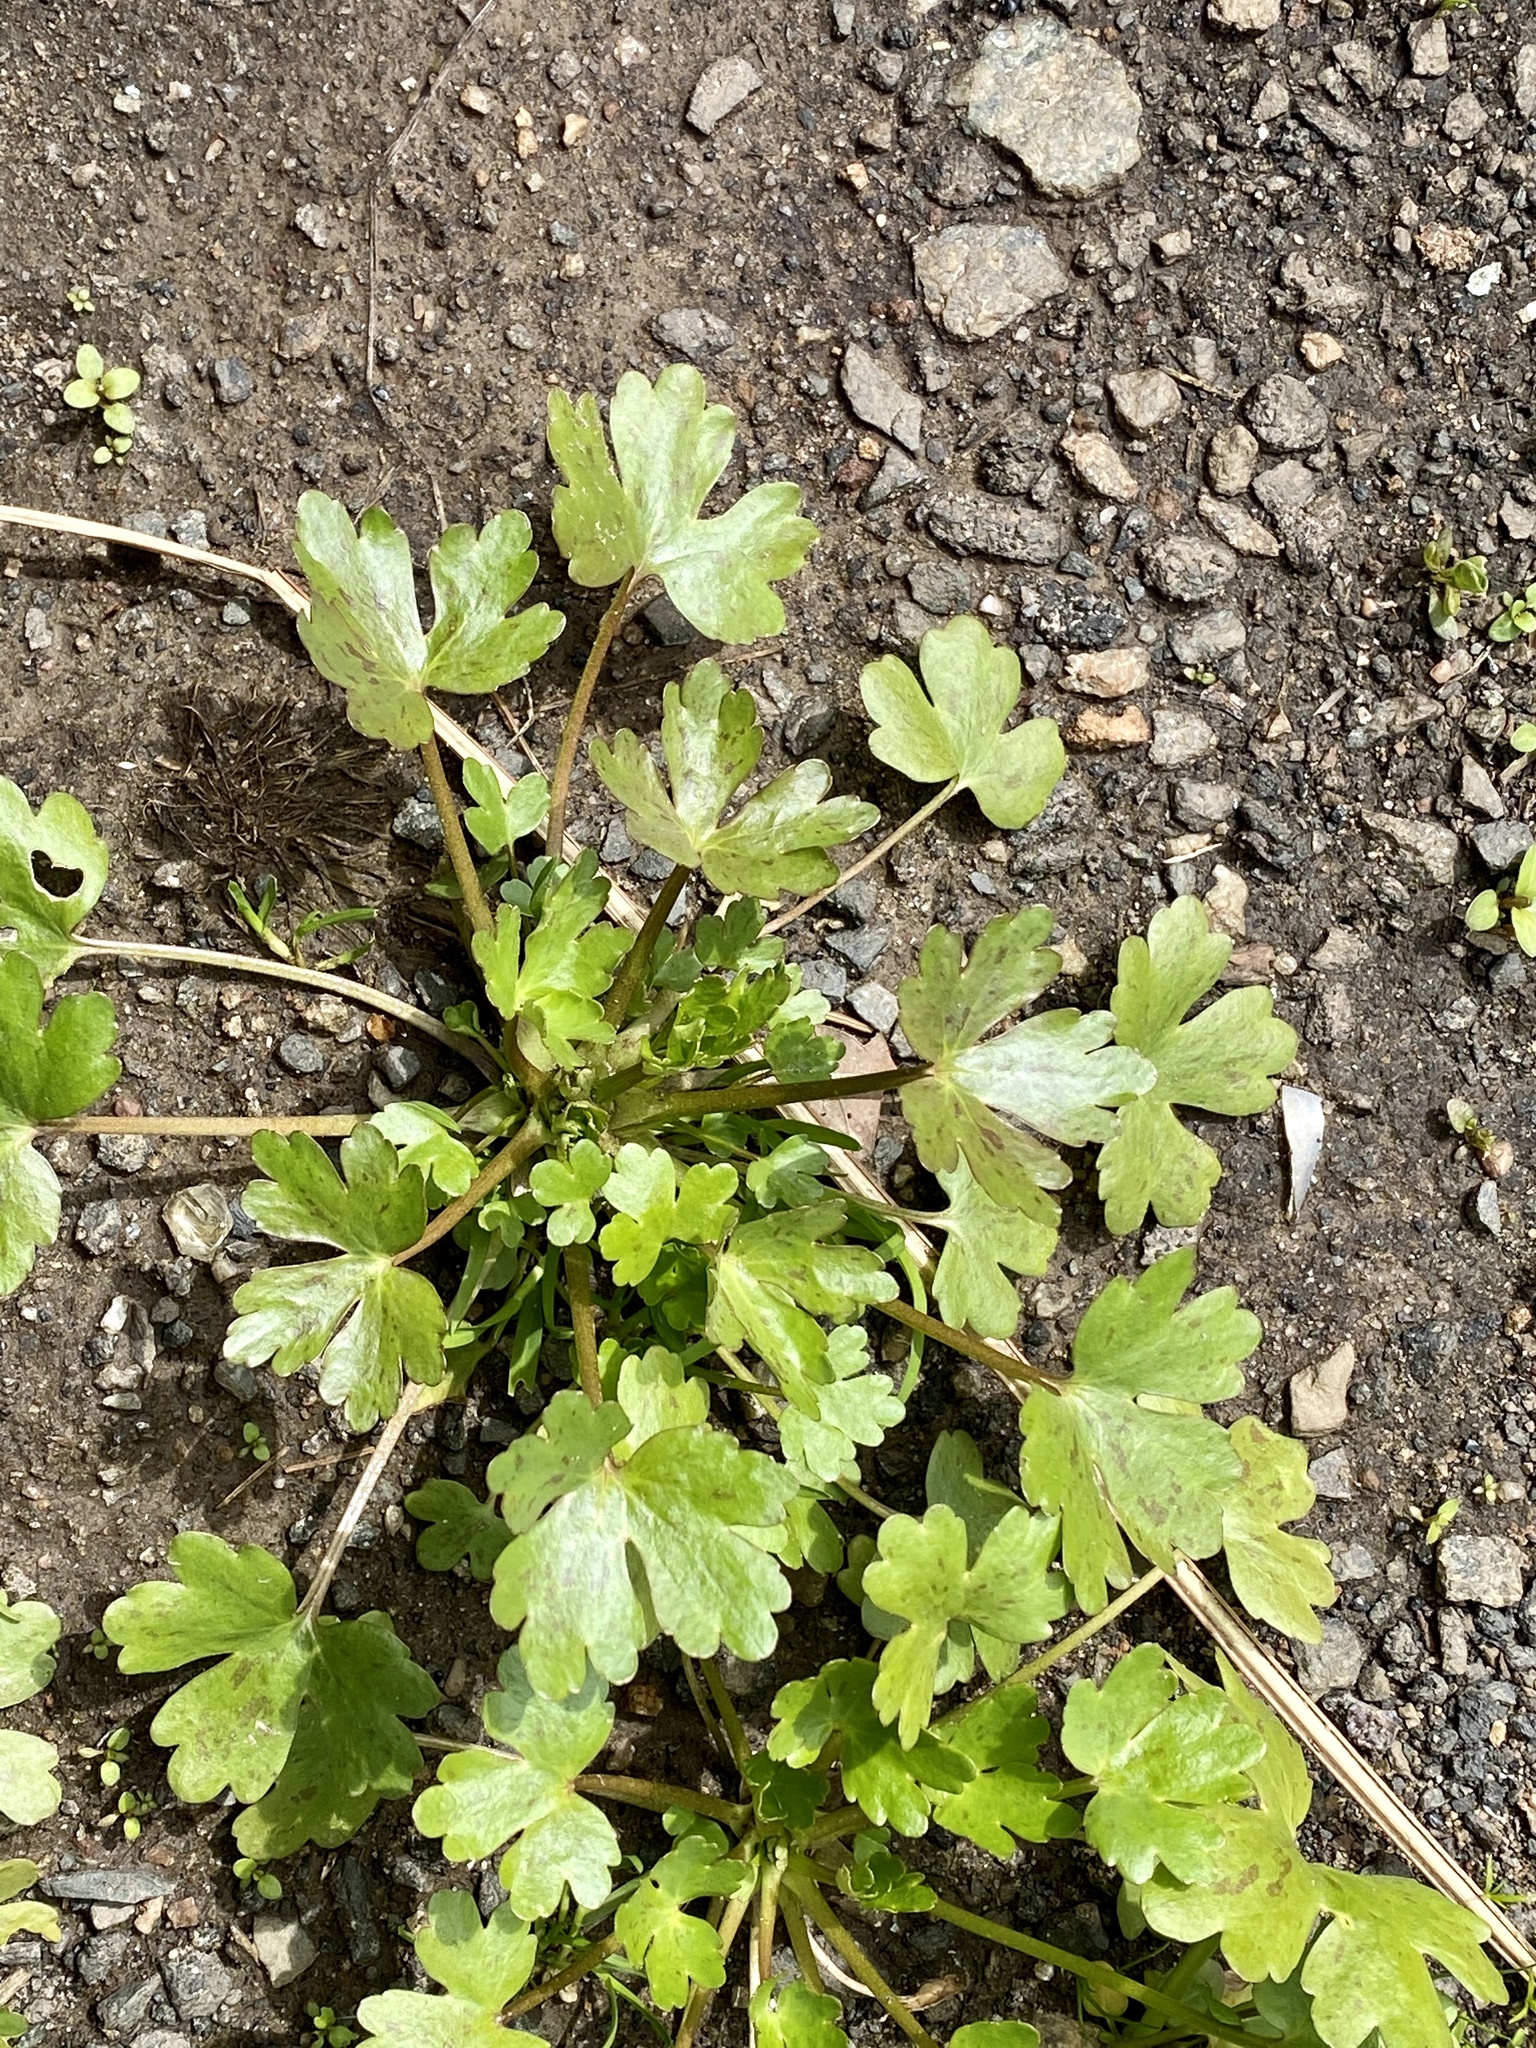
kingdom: Plantae
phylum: Tracheophyta
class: Magnoliopsida
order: Ranunculales
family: Ranunculaceae
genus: Ranunculus
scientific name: Ranunculus sceleratus
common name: Celery-leaved buttercup
